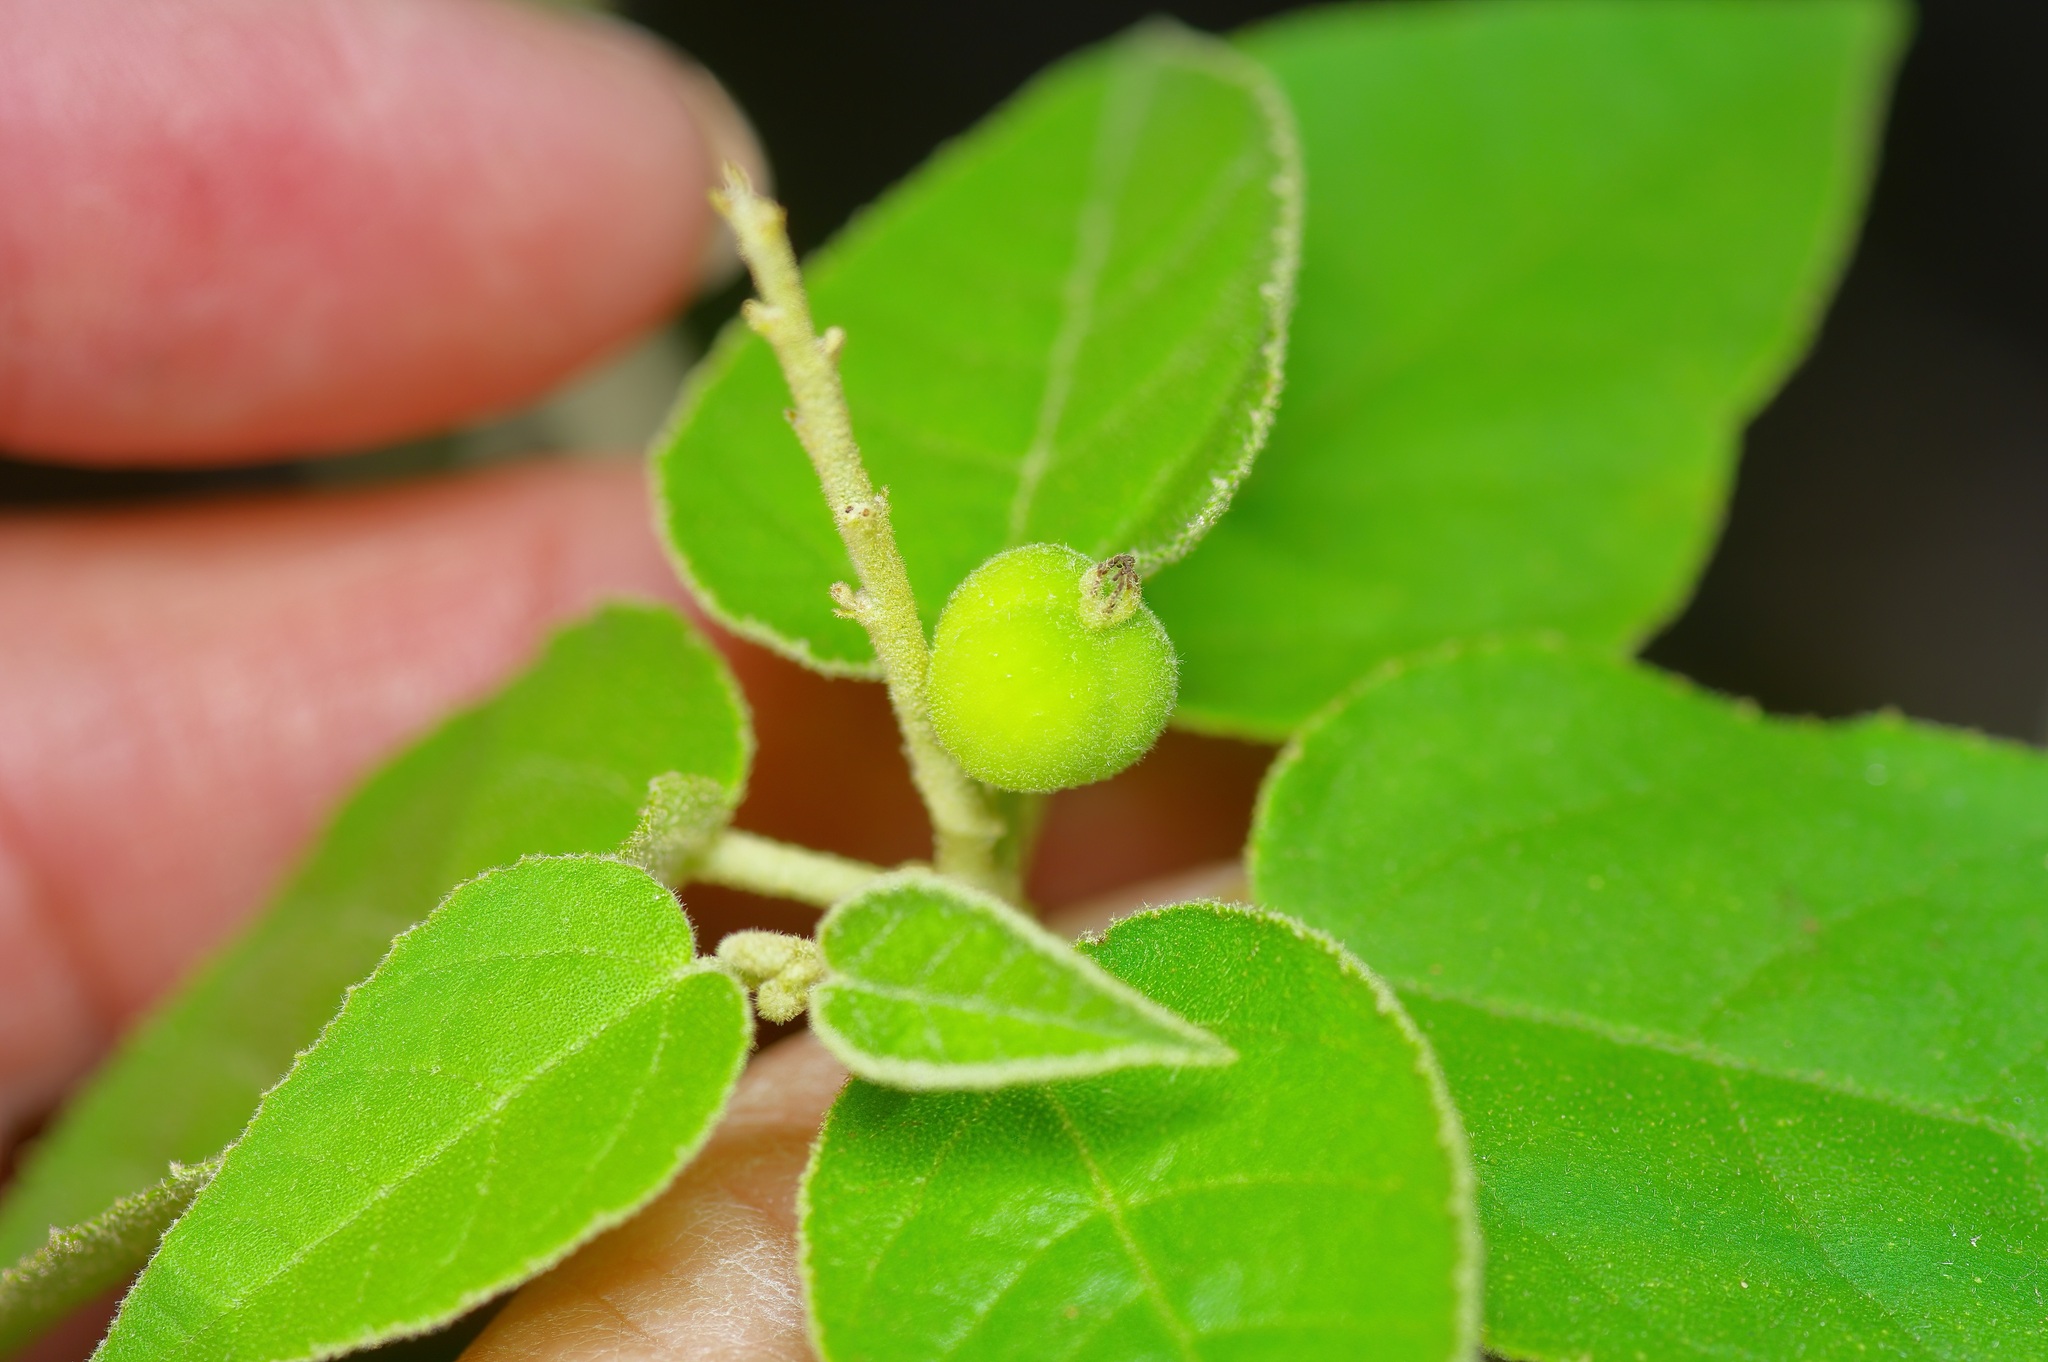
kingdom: Plantae
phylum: Tracheophyta
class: Magnoliopsida
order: Malpighiales
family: Euphorbiaceae
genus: Croton
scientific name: Croton fruticulosus
